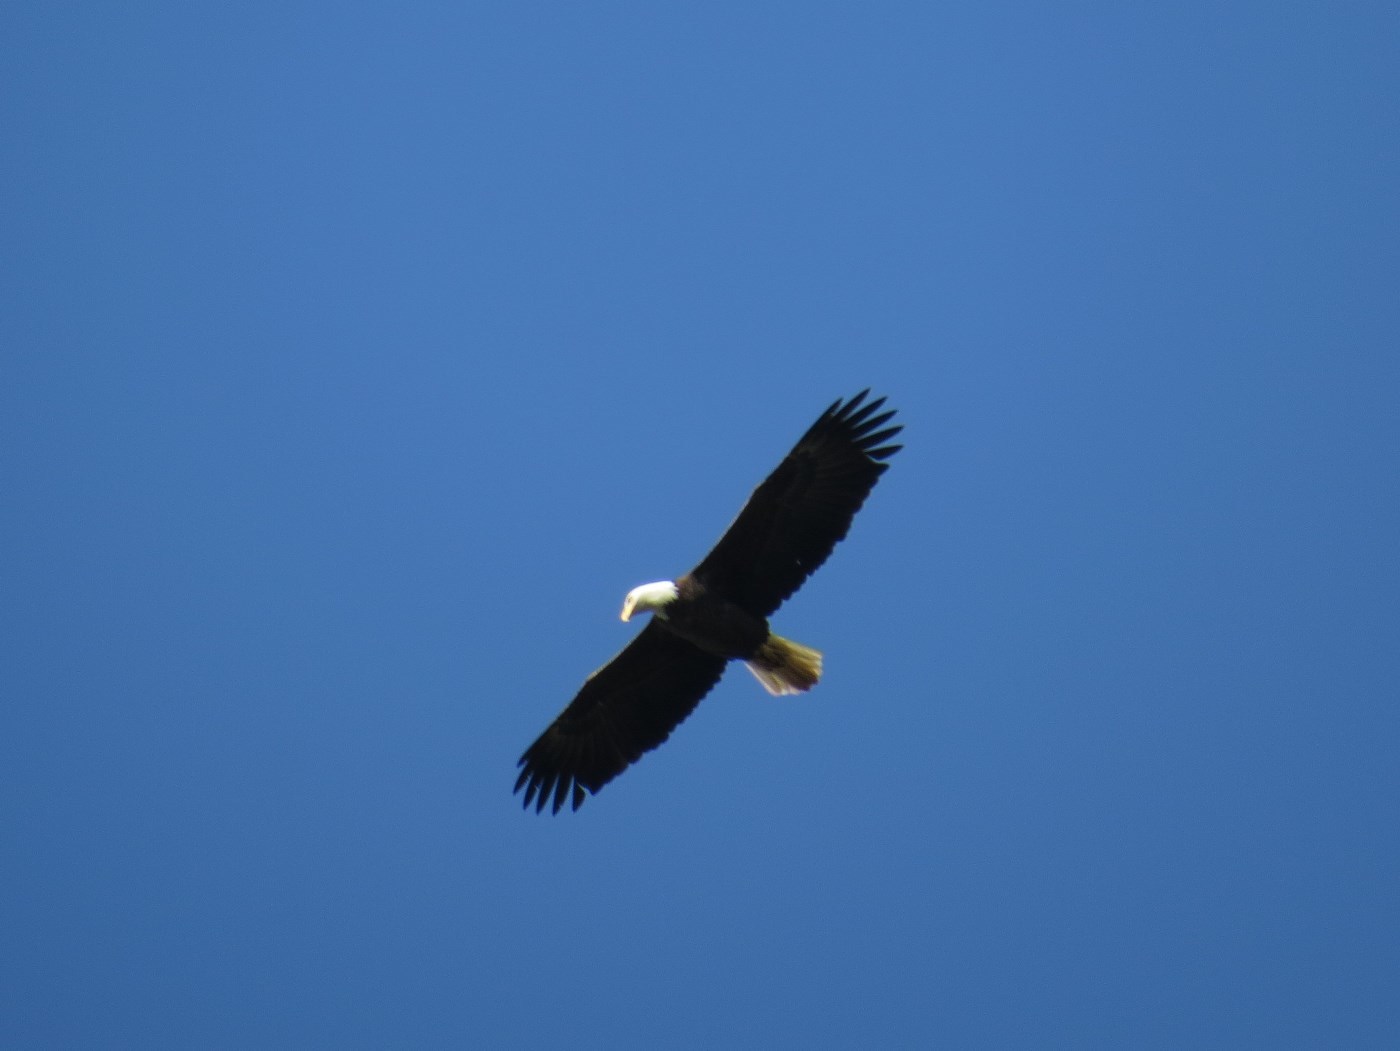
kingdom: Animalia
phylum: Chordata
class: Aves
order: Accipitriformes
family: Accipitridae
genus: Haliaeetus
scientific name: Haliaeetus leucocephalus
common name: Bald eagle
